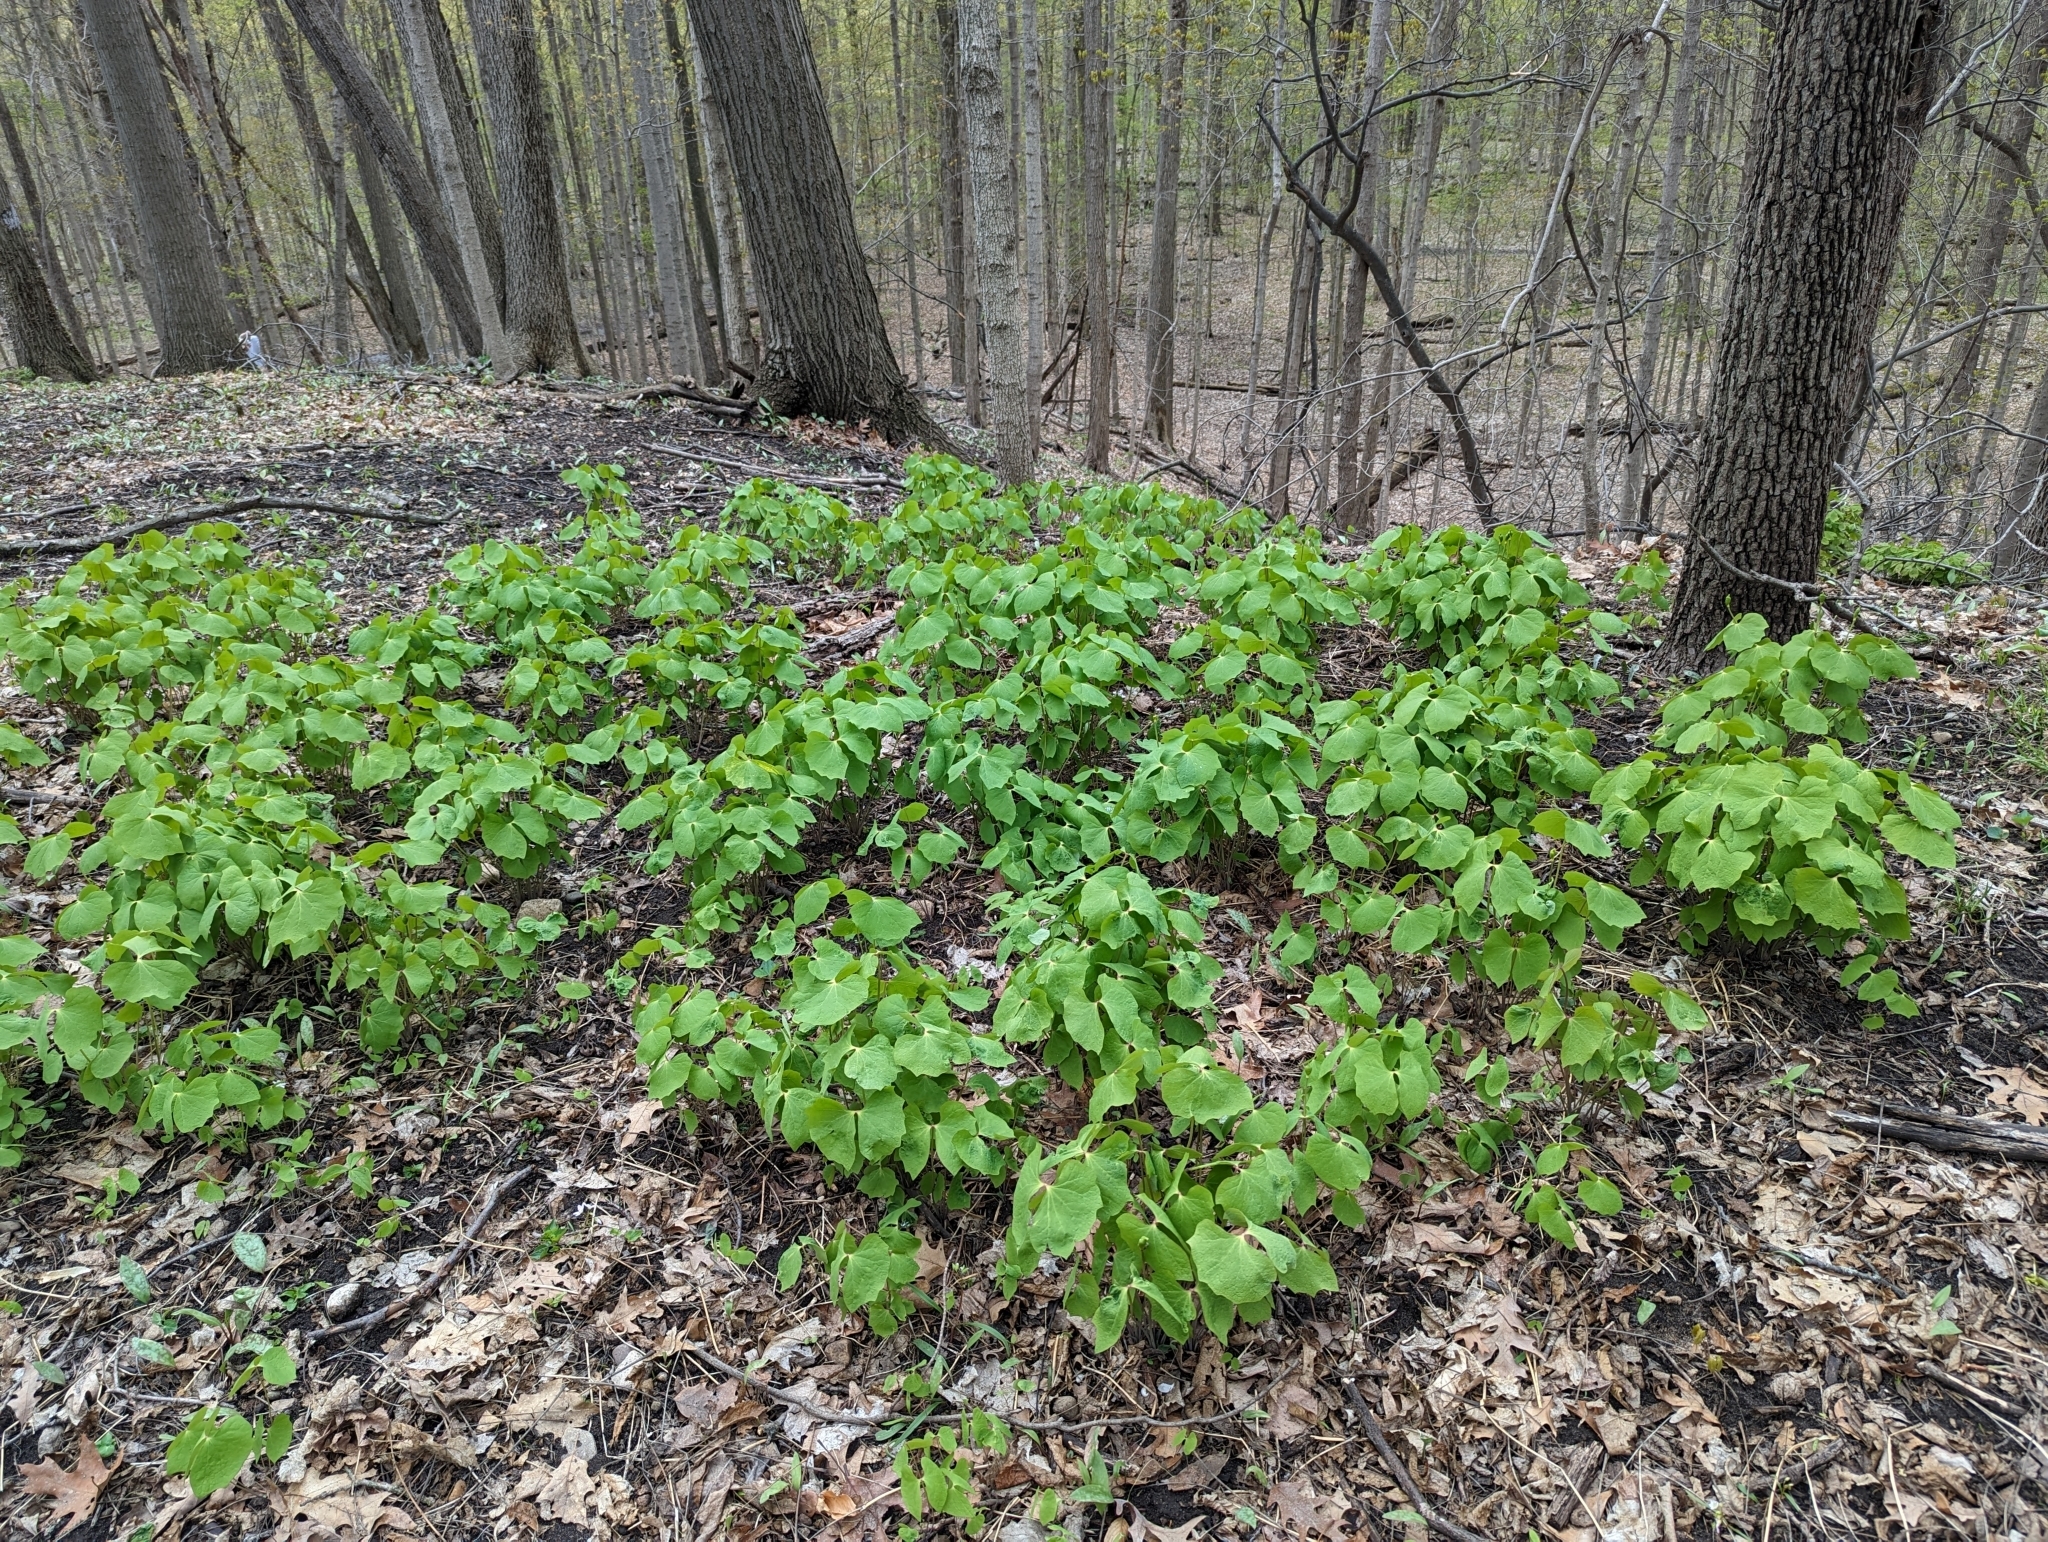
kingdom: Plantae
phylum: Tracheophyta
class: Magnoliopsida
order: Ranunculales
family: Berberidaceae
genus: Jeffersonia
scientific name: Jeffersonia diphylla
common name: Rheumatism-root
